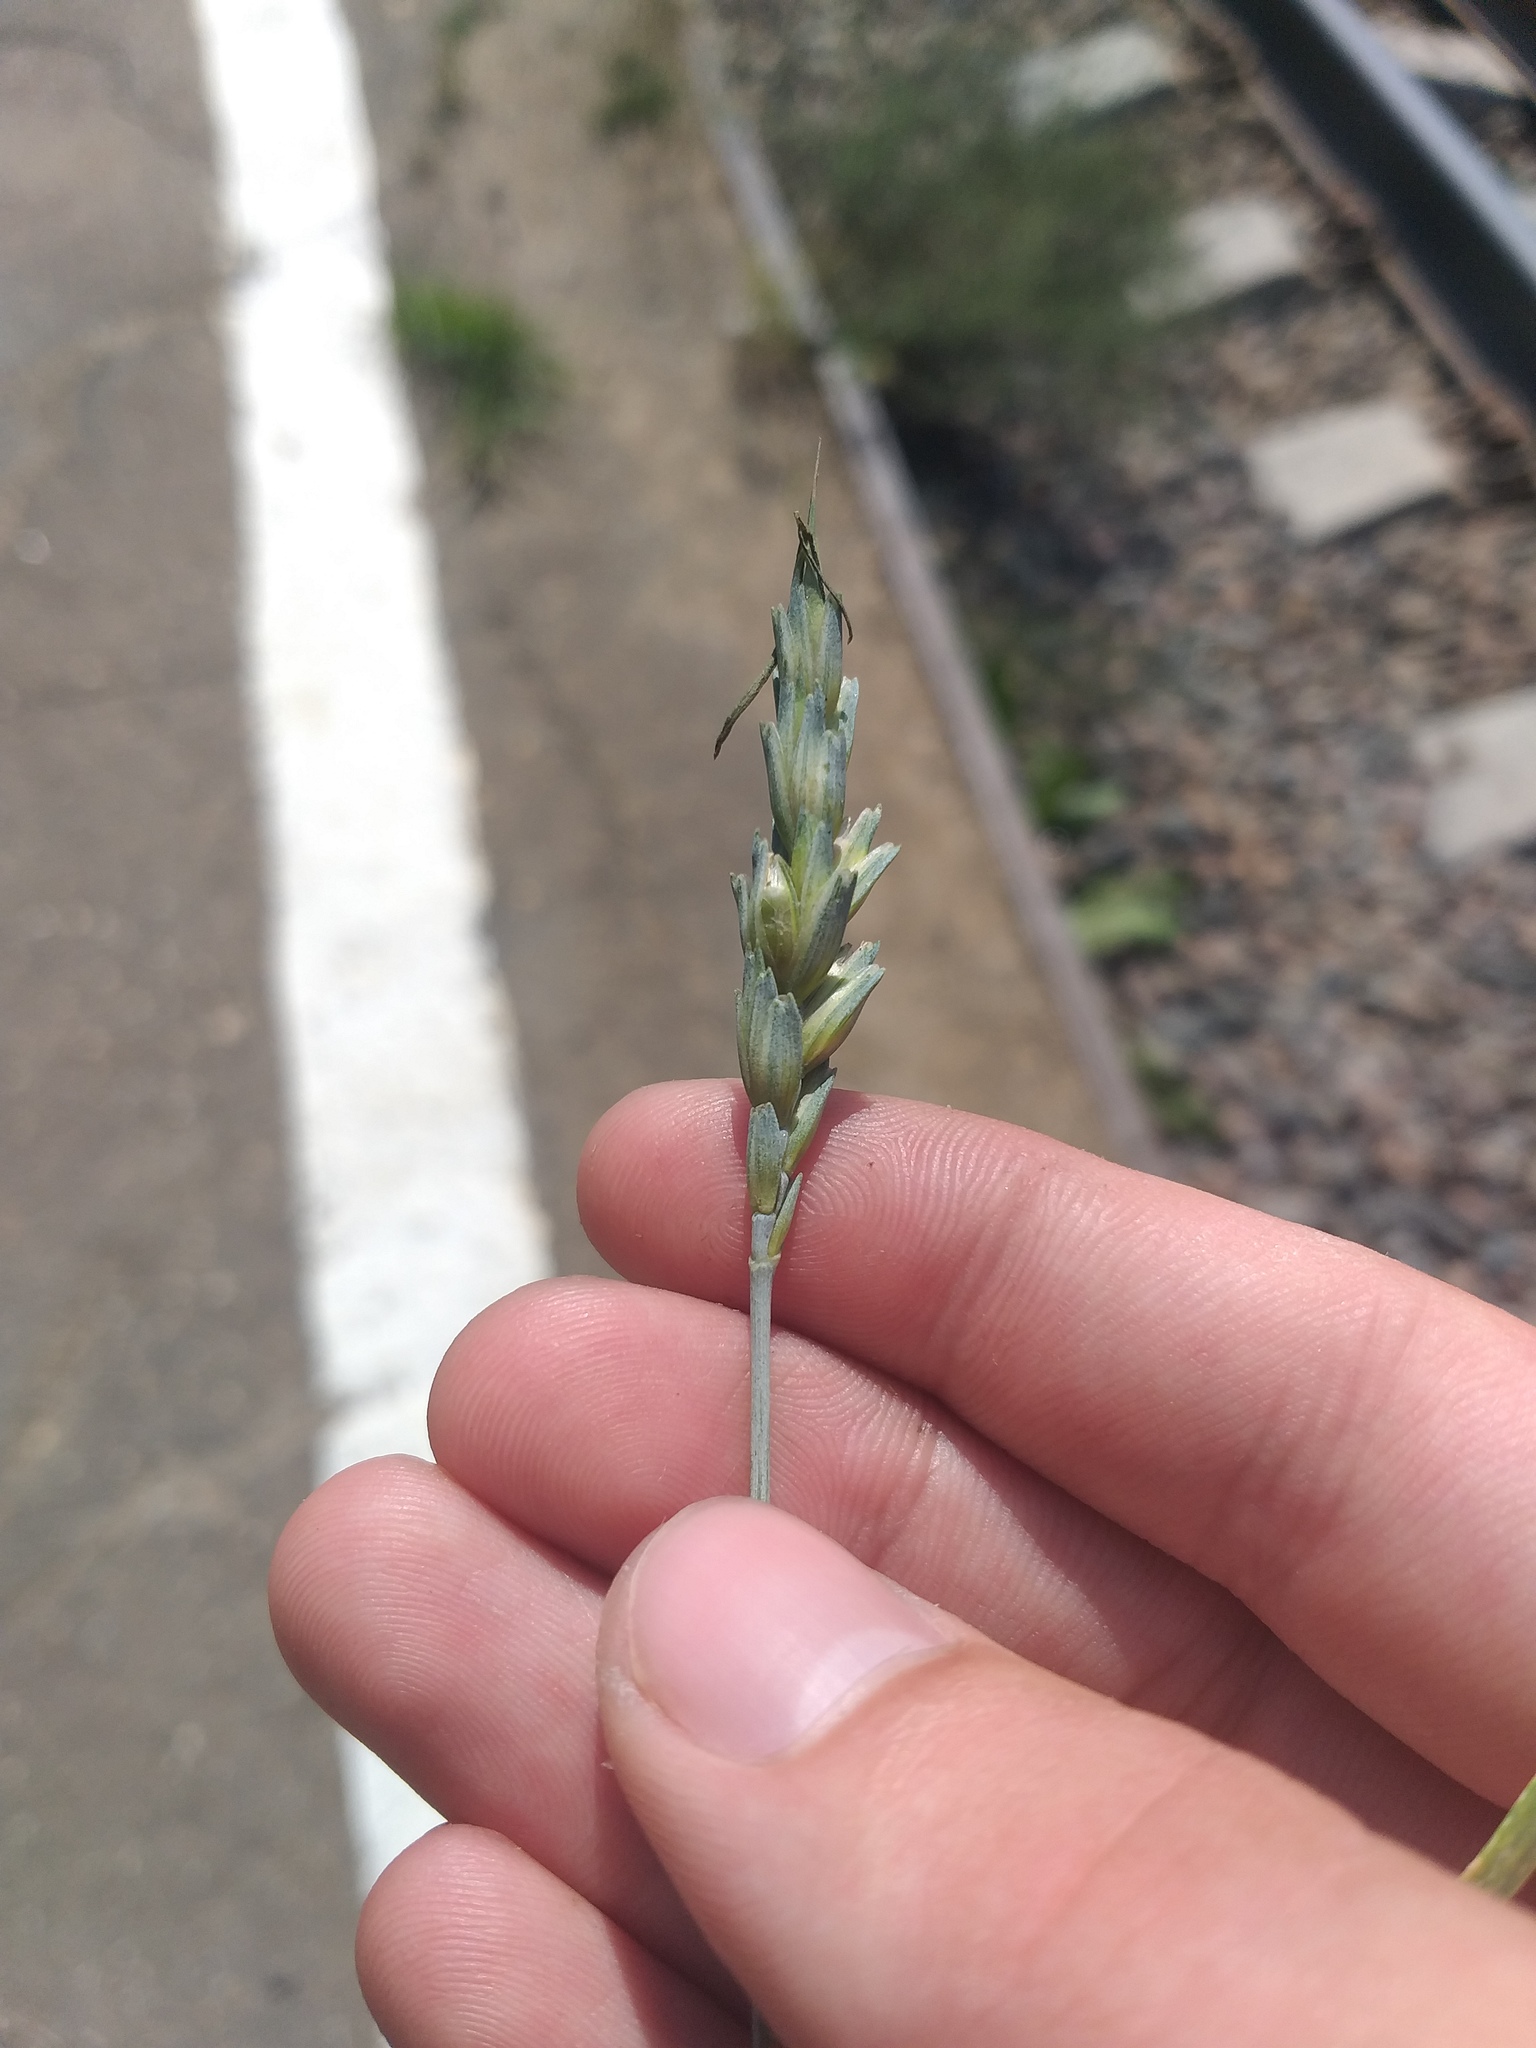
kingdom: Plantae
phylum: Tracheophyta
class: Liliopsida
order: Poales
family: Poaceae
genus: Triticum
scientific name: Triticum aestivum
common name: Common wheat
